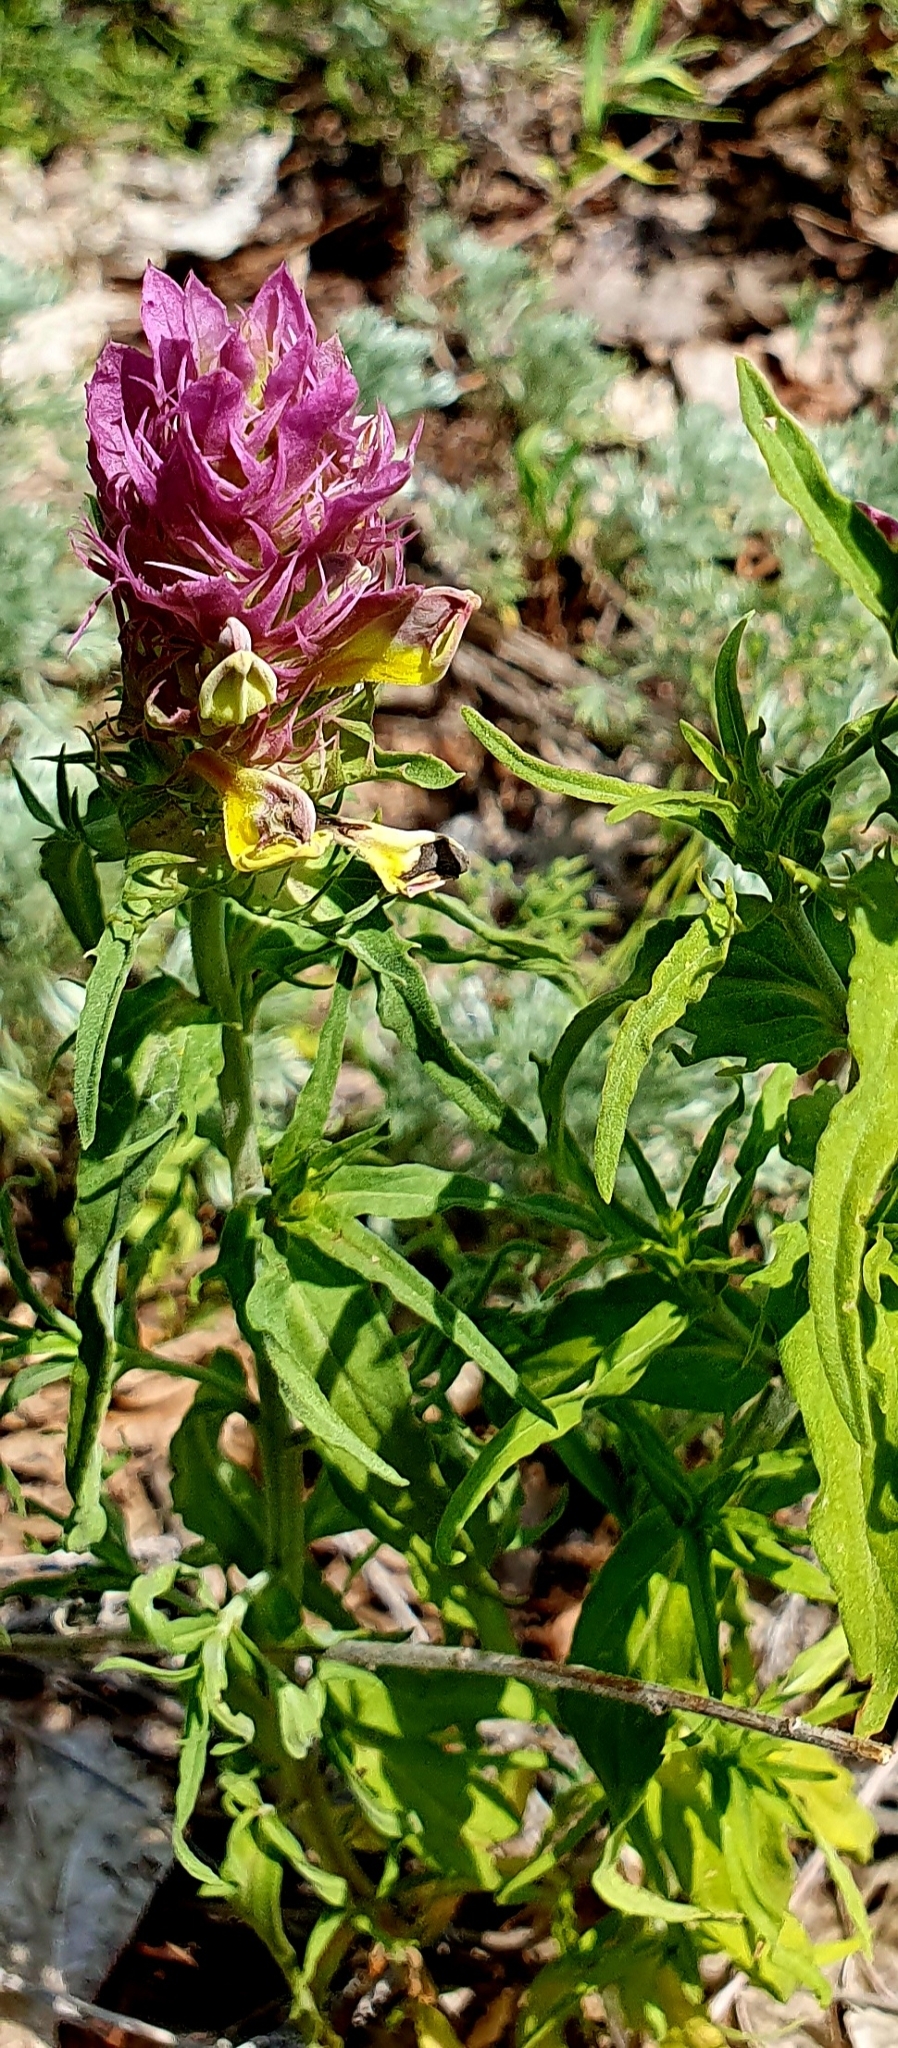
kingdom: Plantae
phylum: Tracheophyta
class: Magnoliopsida
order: Lamiales
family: Orobanchaceae
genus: Melampyrum
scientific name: Melampyrum arvense
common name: Field cow-wheat
